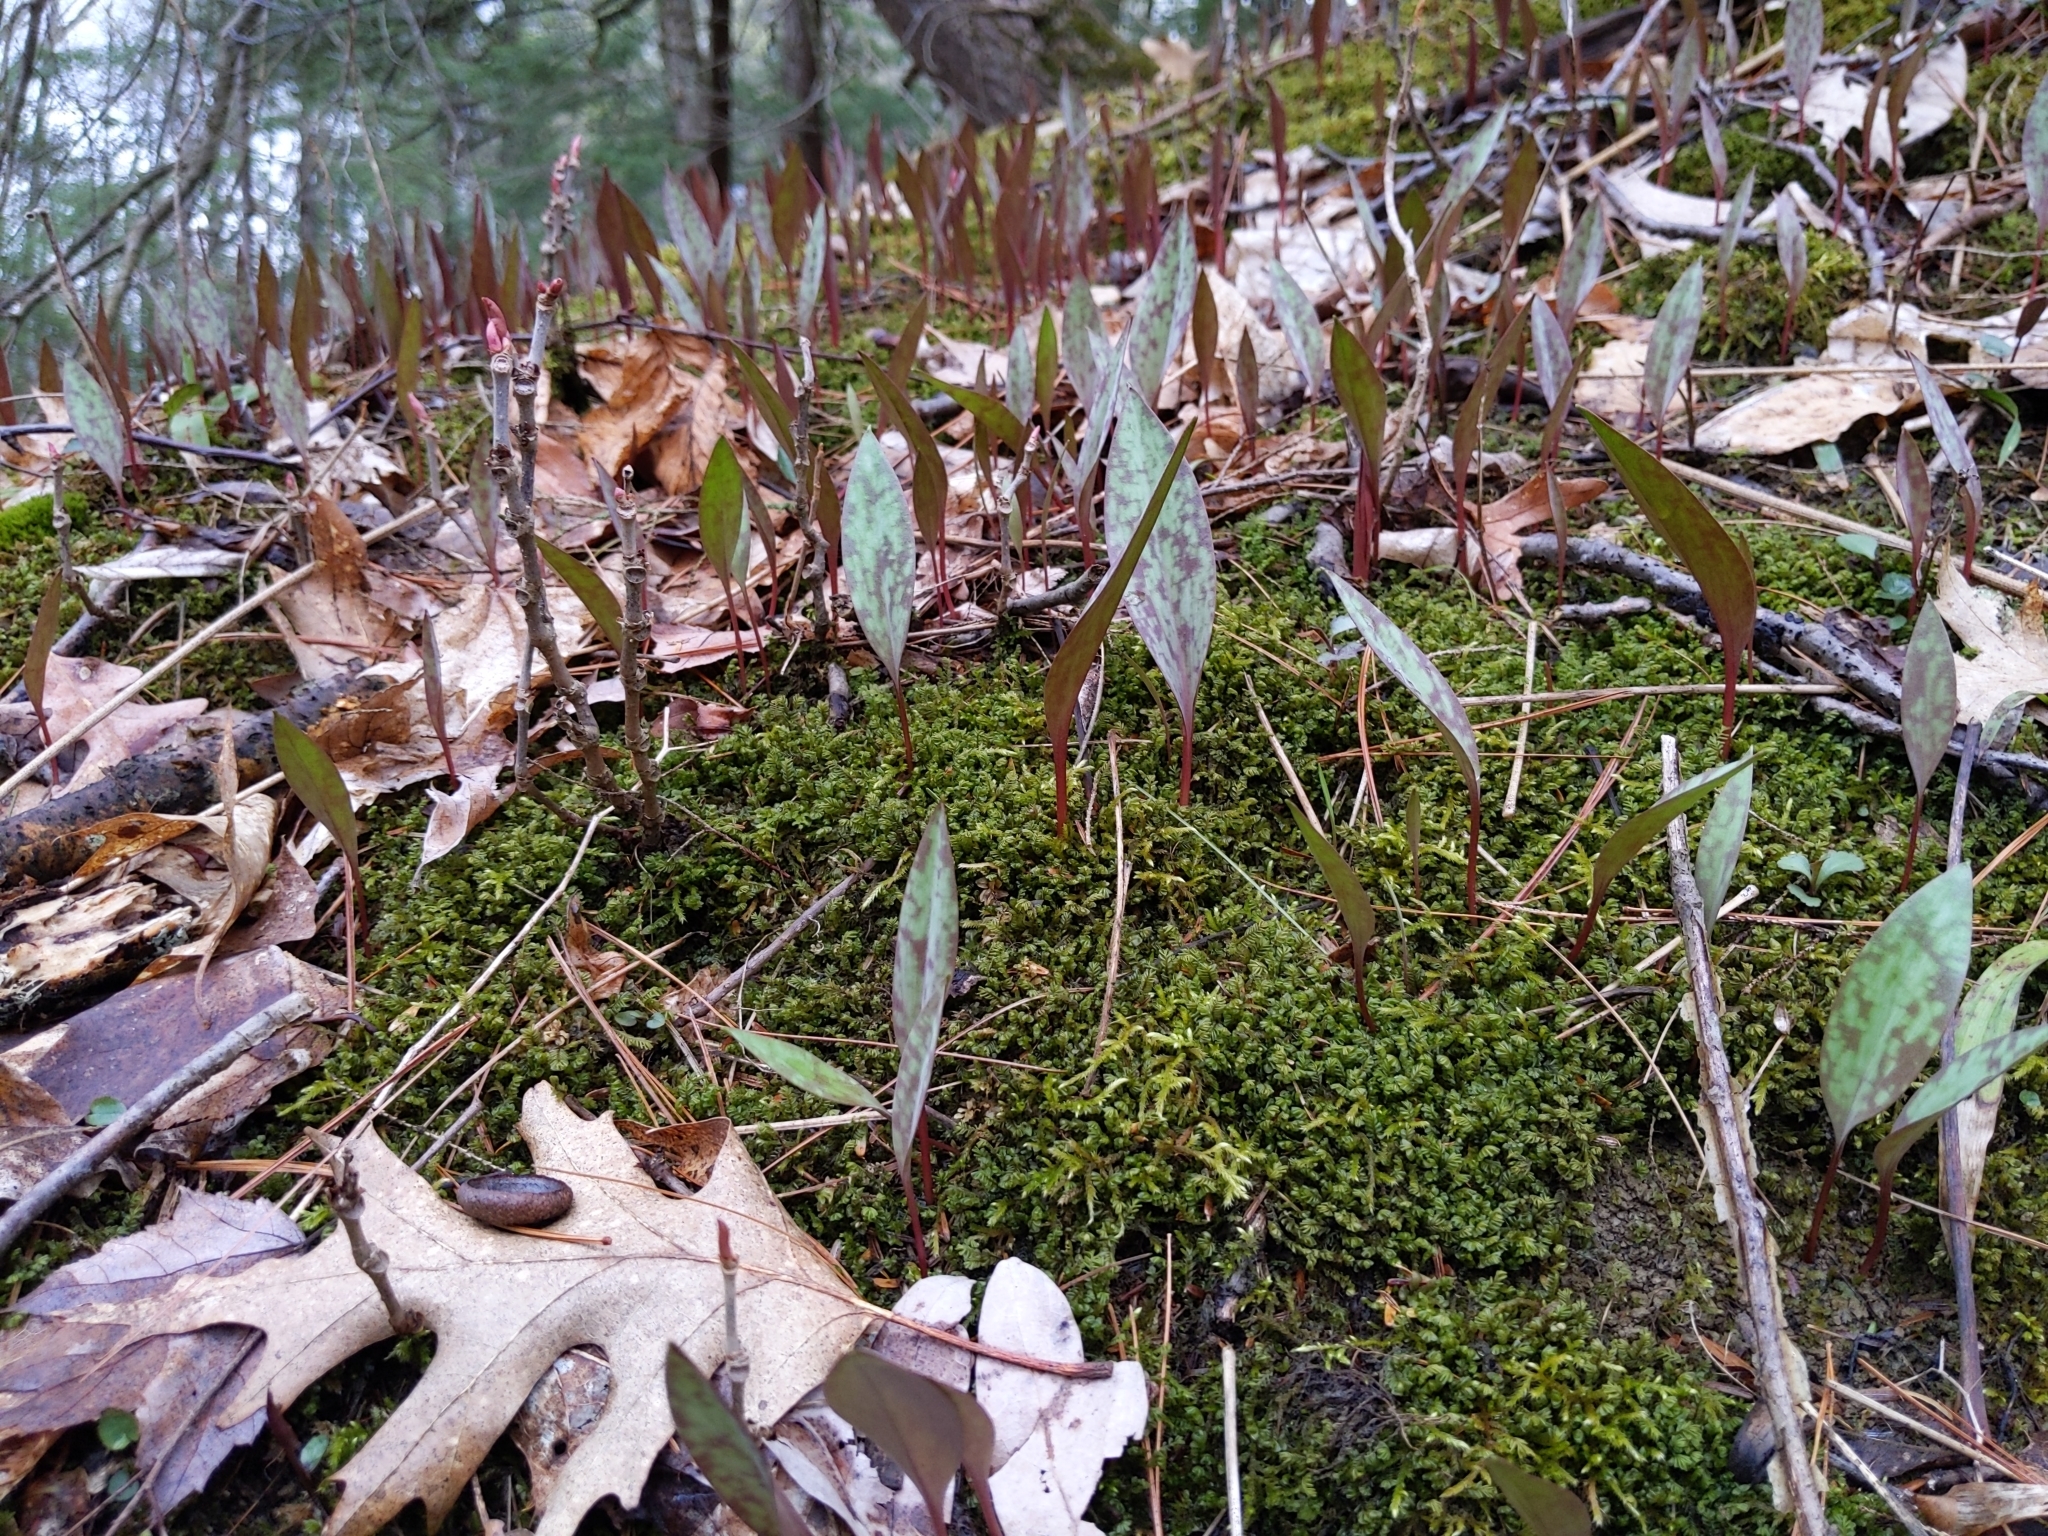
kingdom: Plantae
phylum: Tracheophyta
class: Liliopsida
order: Liliales
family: Liliaceae
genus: Erythronium
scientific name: Erythronium americanum
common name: Yellow adder's-tongue
